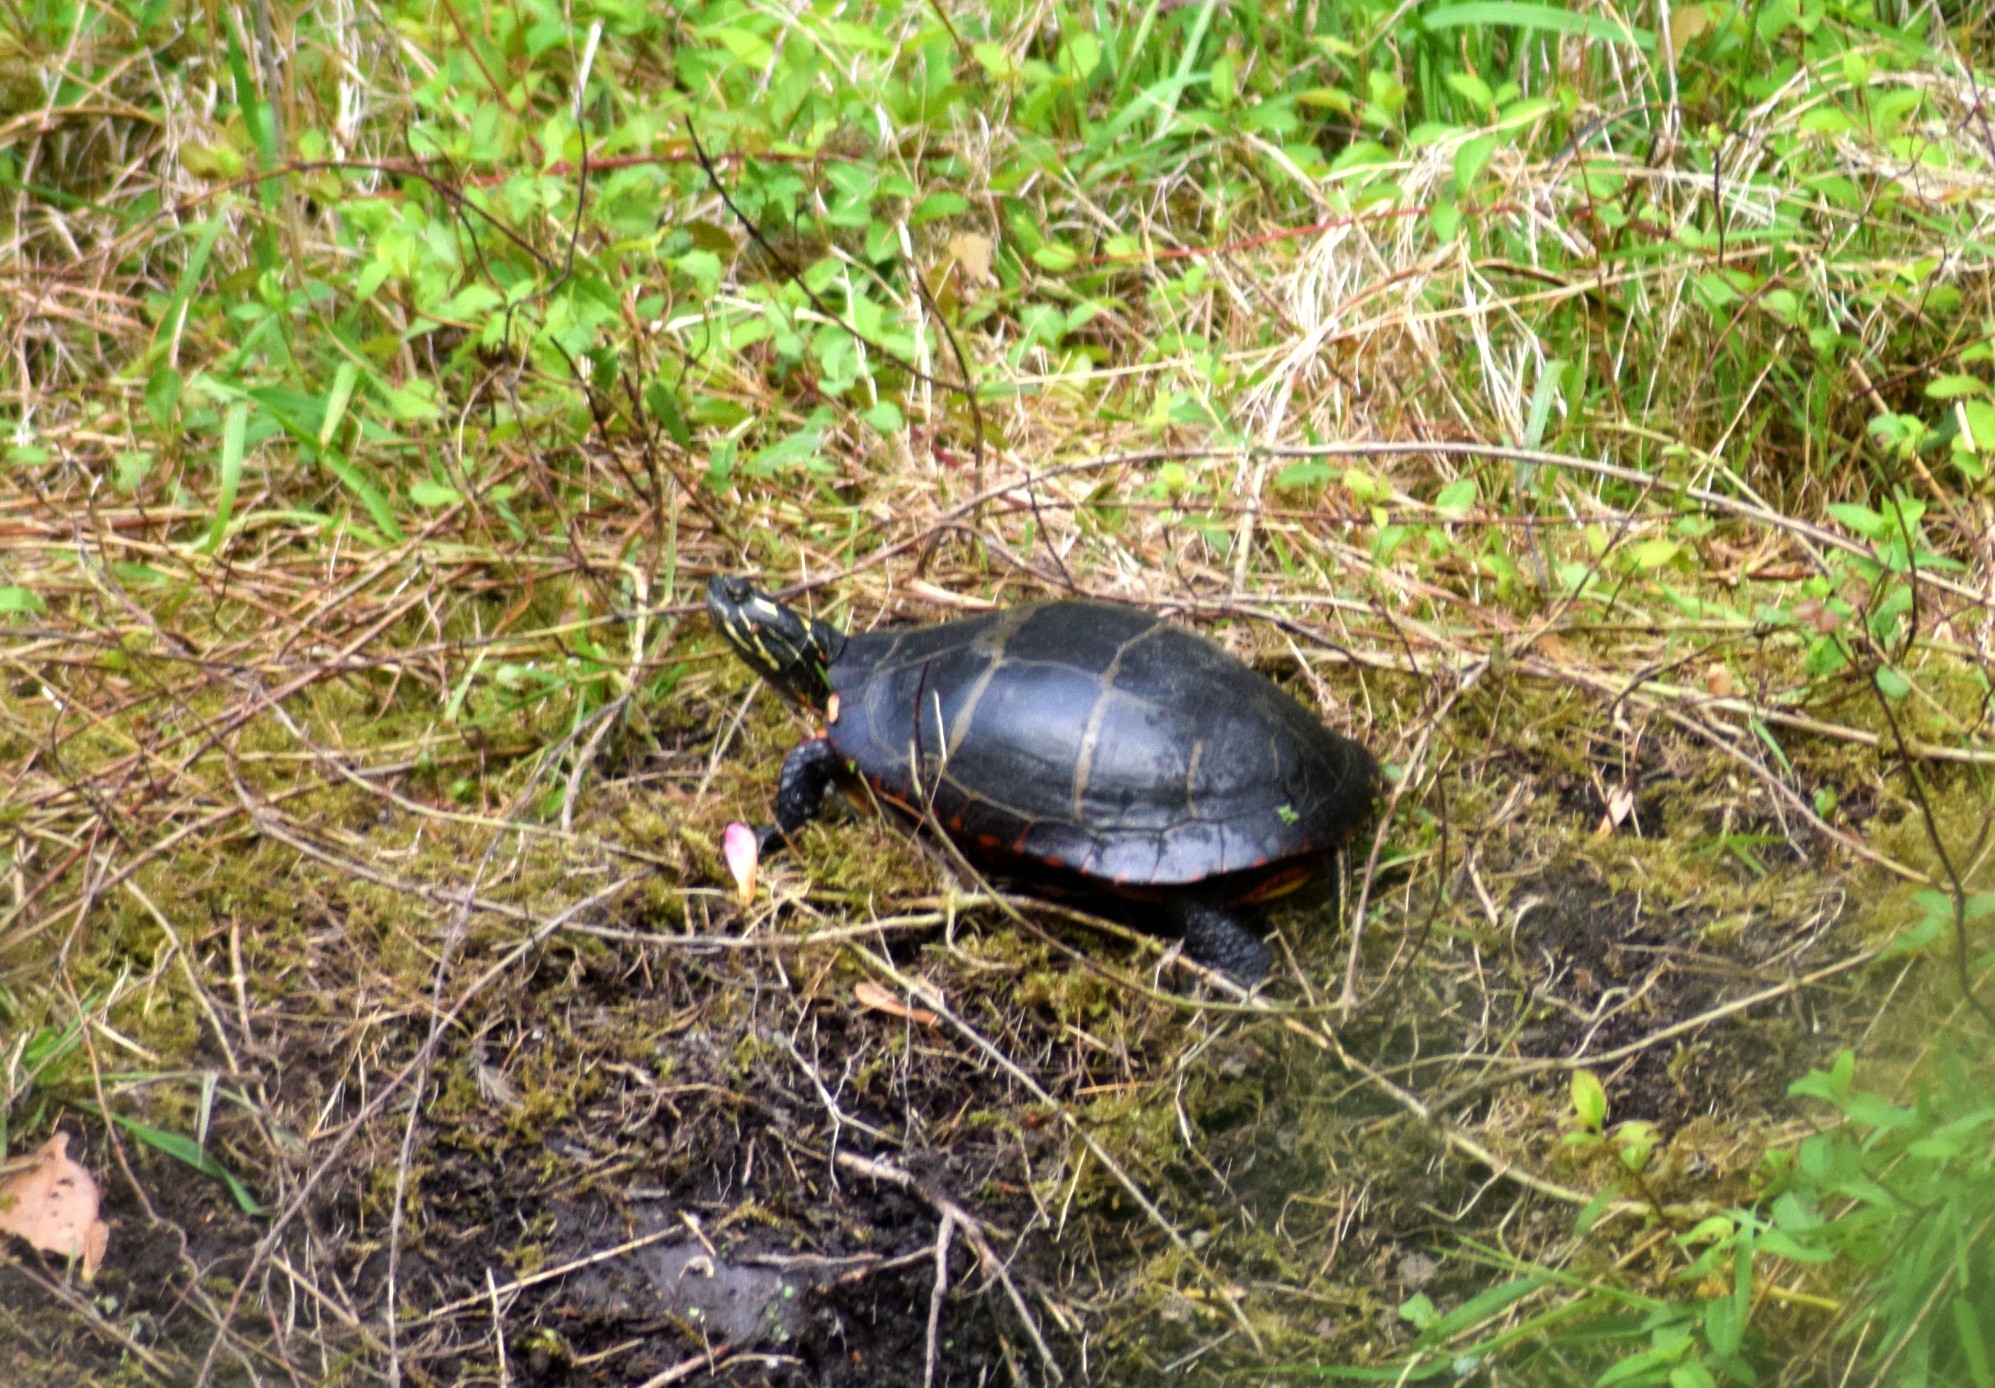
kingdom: Animalia
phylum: Chordata
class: Testudines
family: Emydidae
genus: Chrysemys
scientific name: Chrysemys picta
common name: Painted turtle
